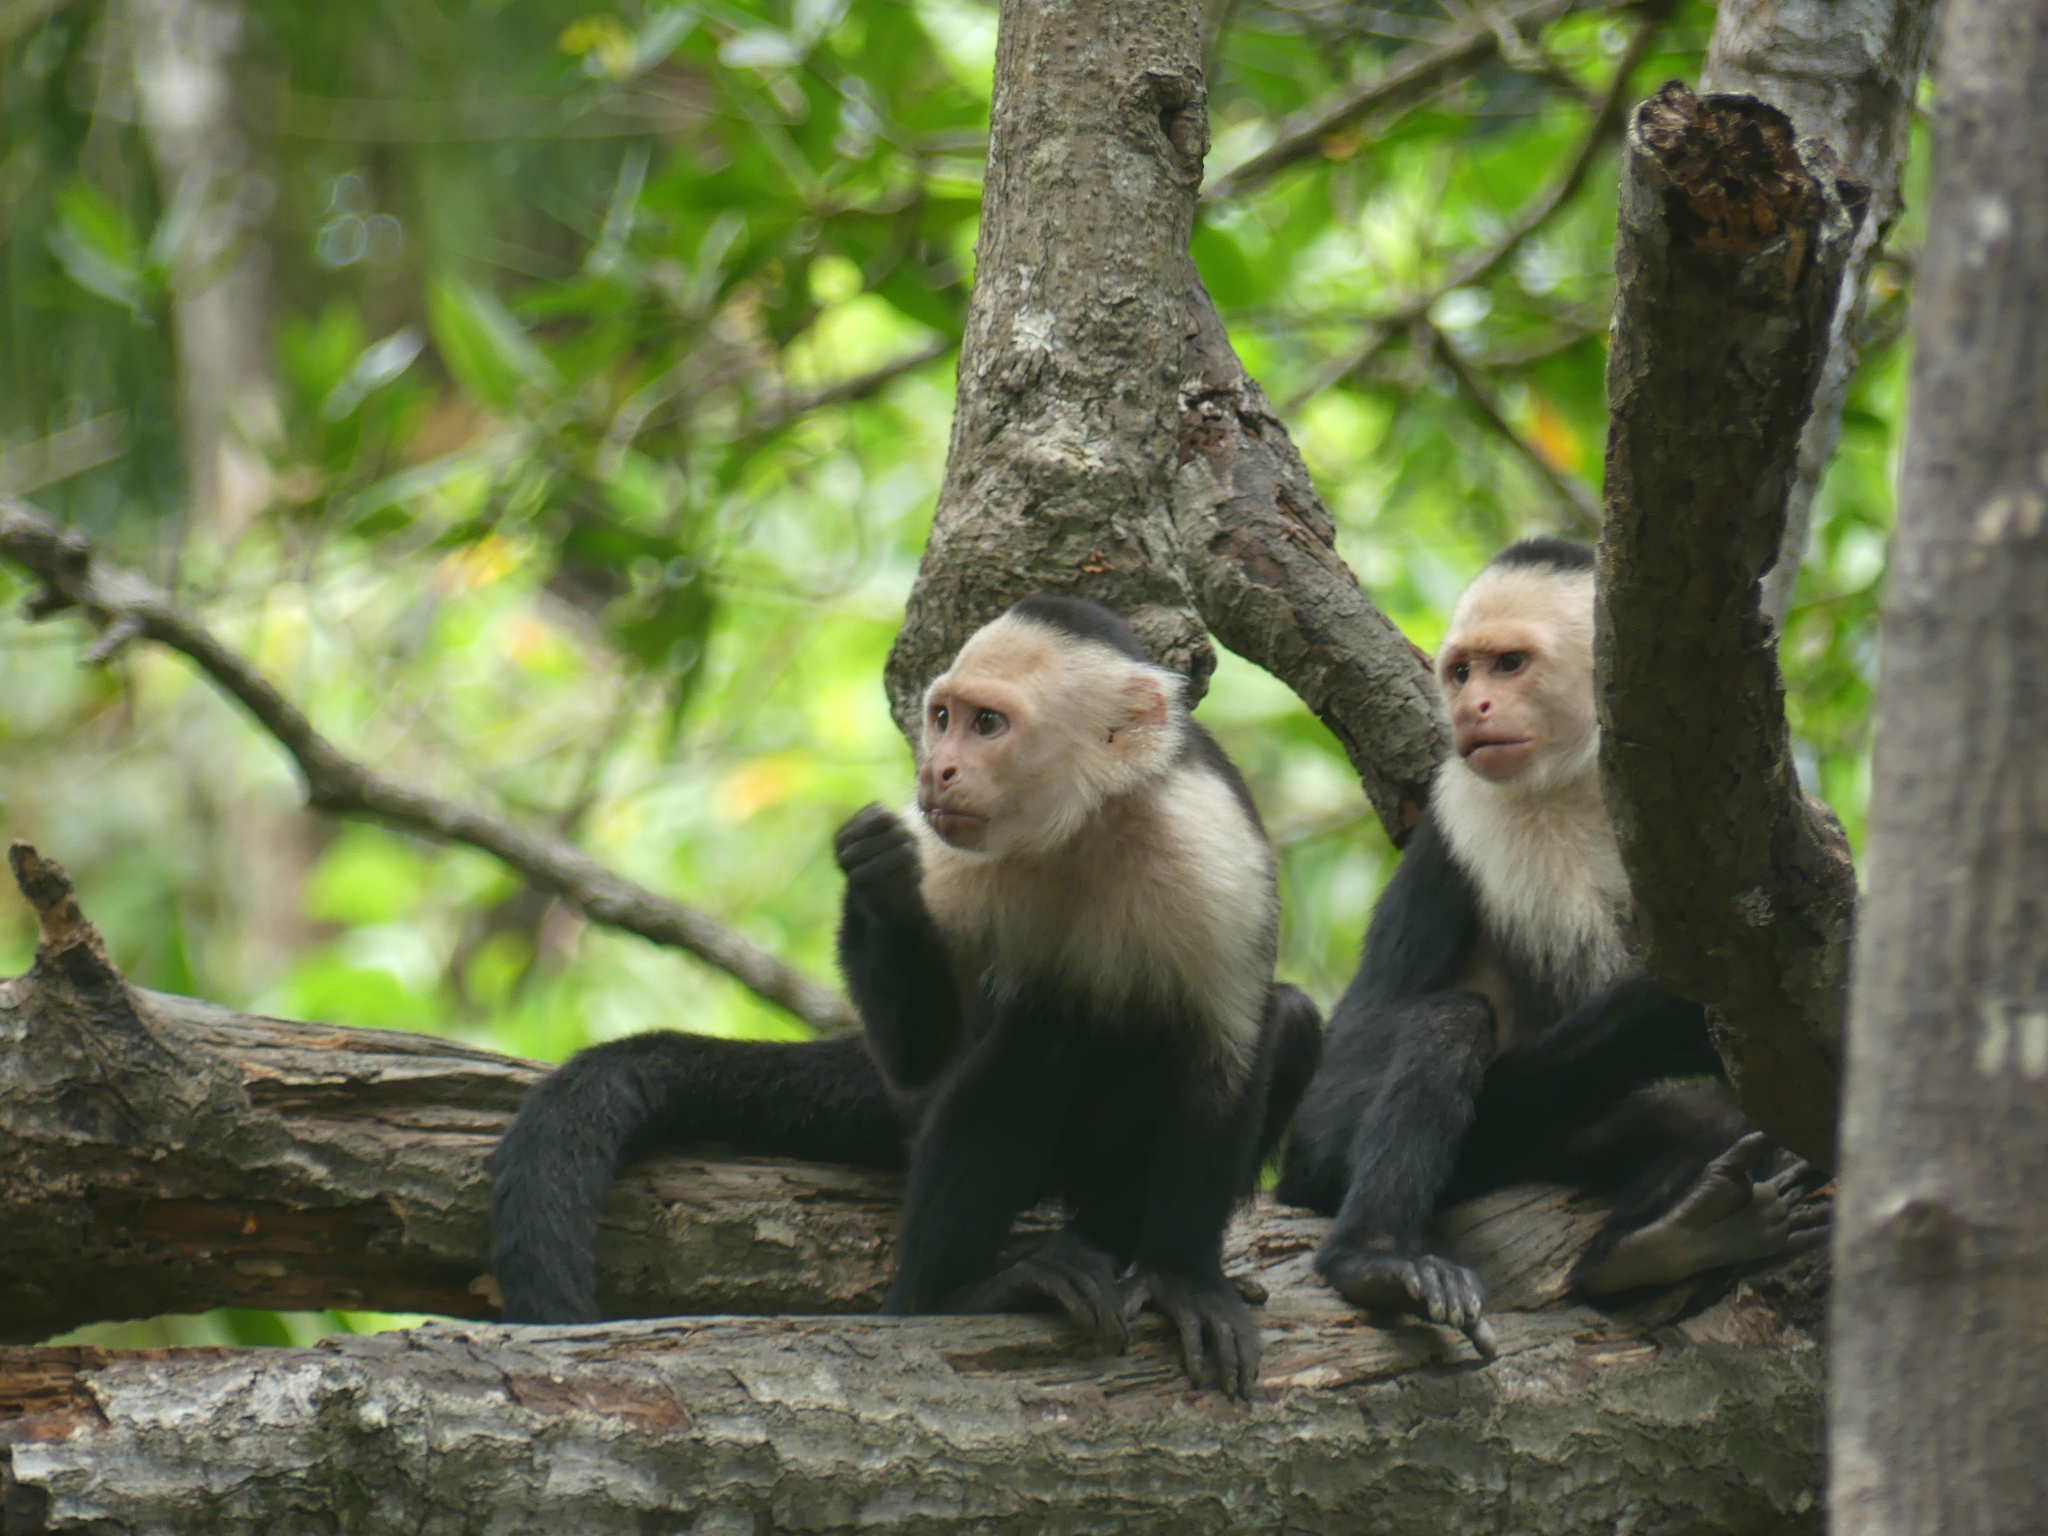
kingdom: Animalia
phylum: Chordata
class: Mammalia
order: Primates
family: Cebidae
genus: Cebus
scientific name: Cebus imitator
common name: Panamanian white-faced capuchin
